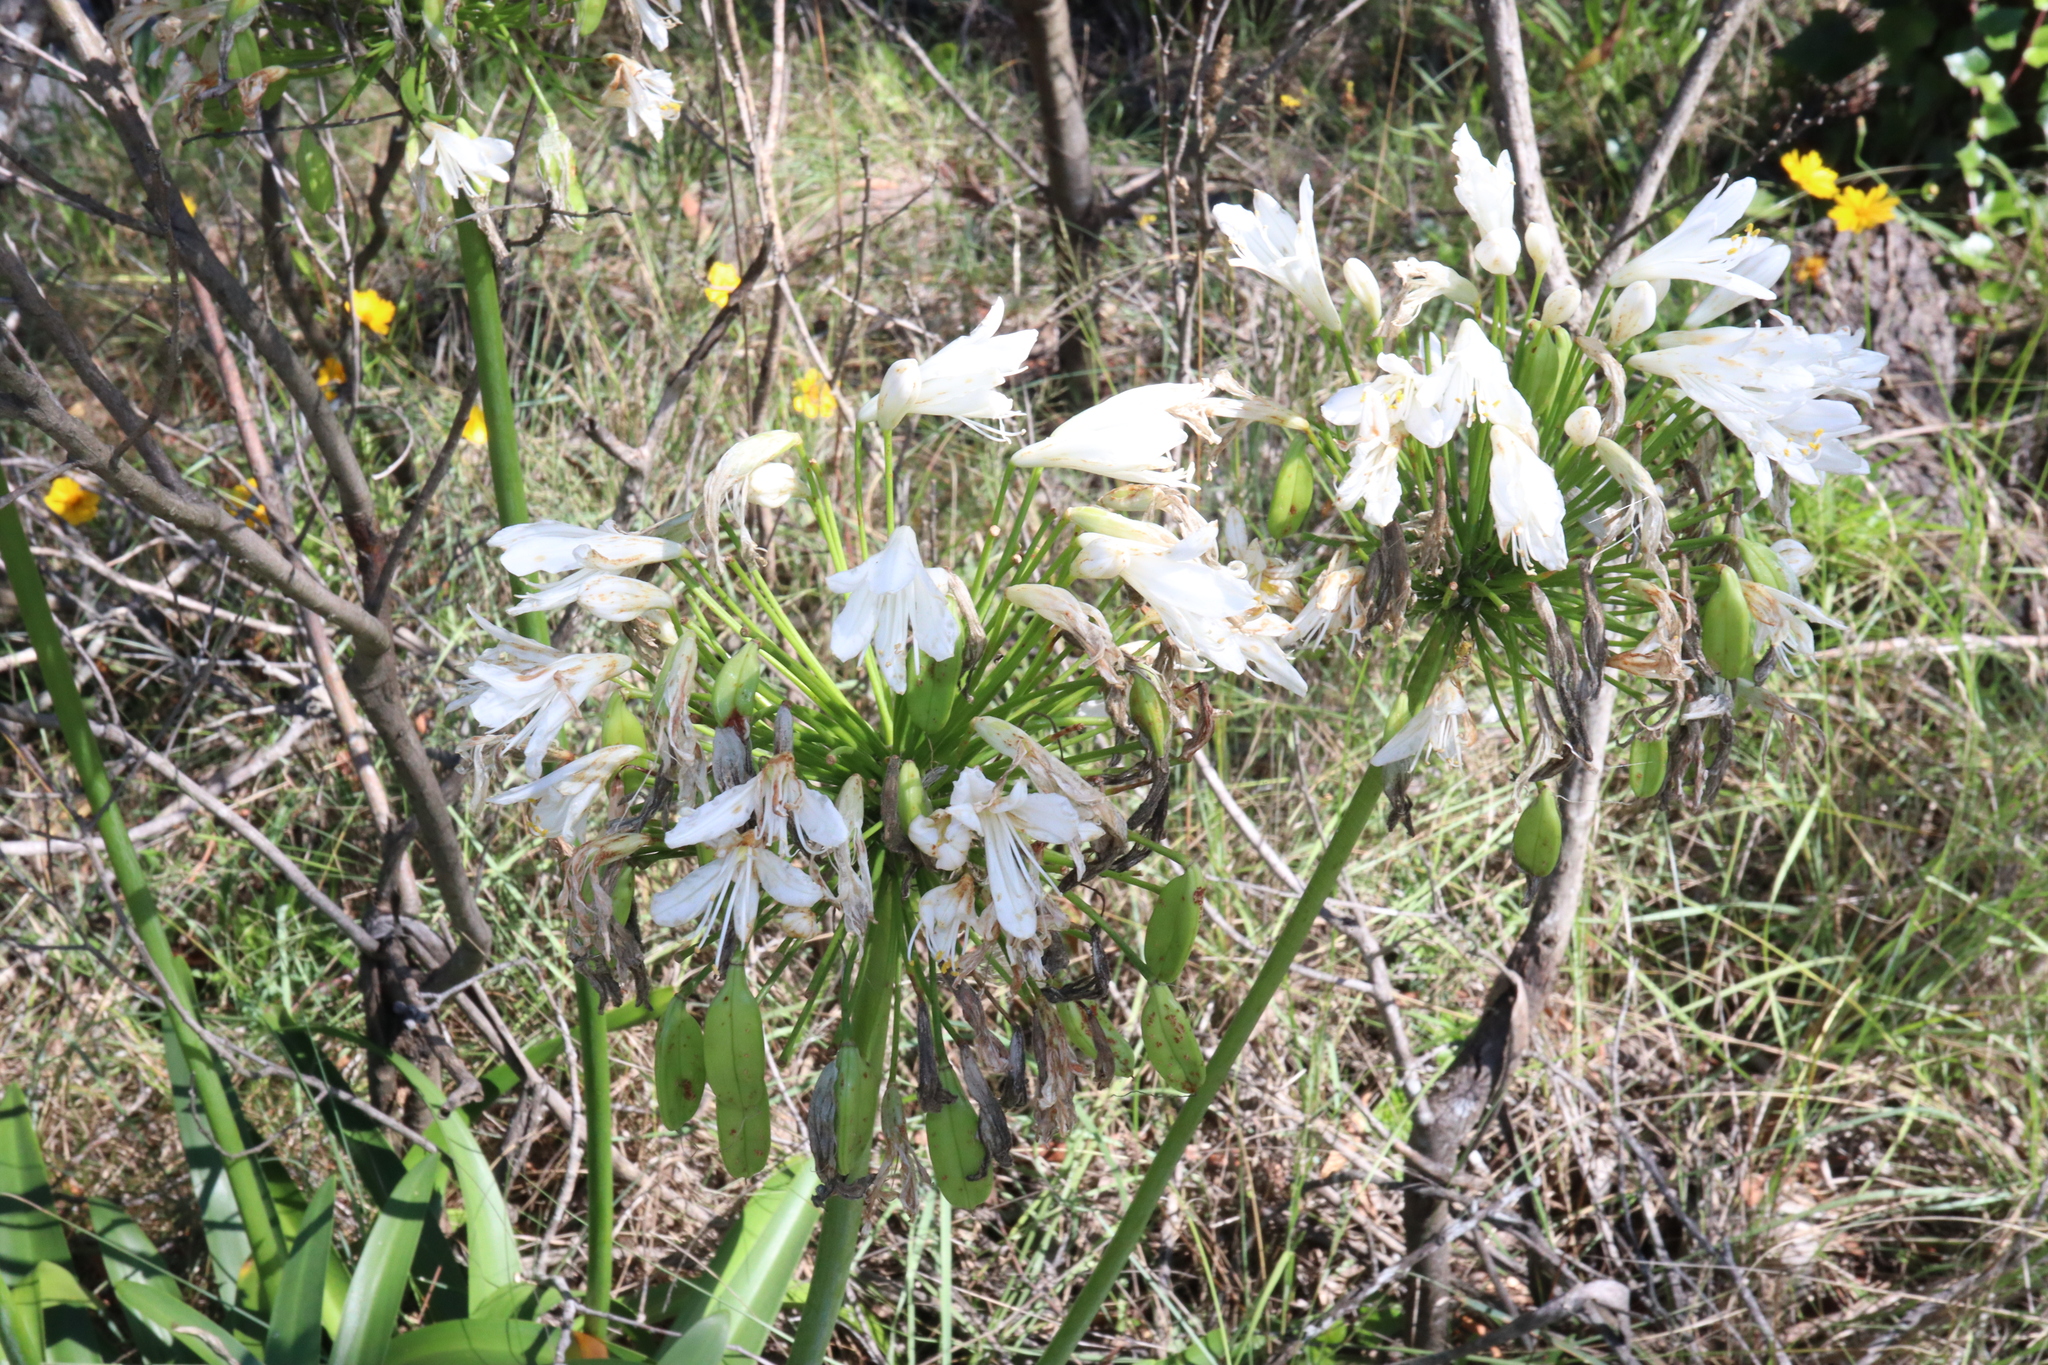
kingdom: Plantae
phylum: Tracheophyta
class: Liliopsida
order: Asparagales
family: Amaryllidaceae
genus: Agapanthus
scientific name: Agapanthus praecox
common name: African-lily
